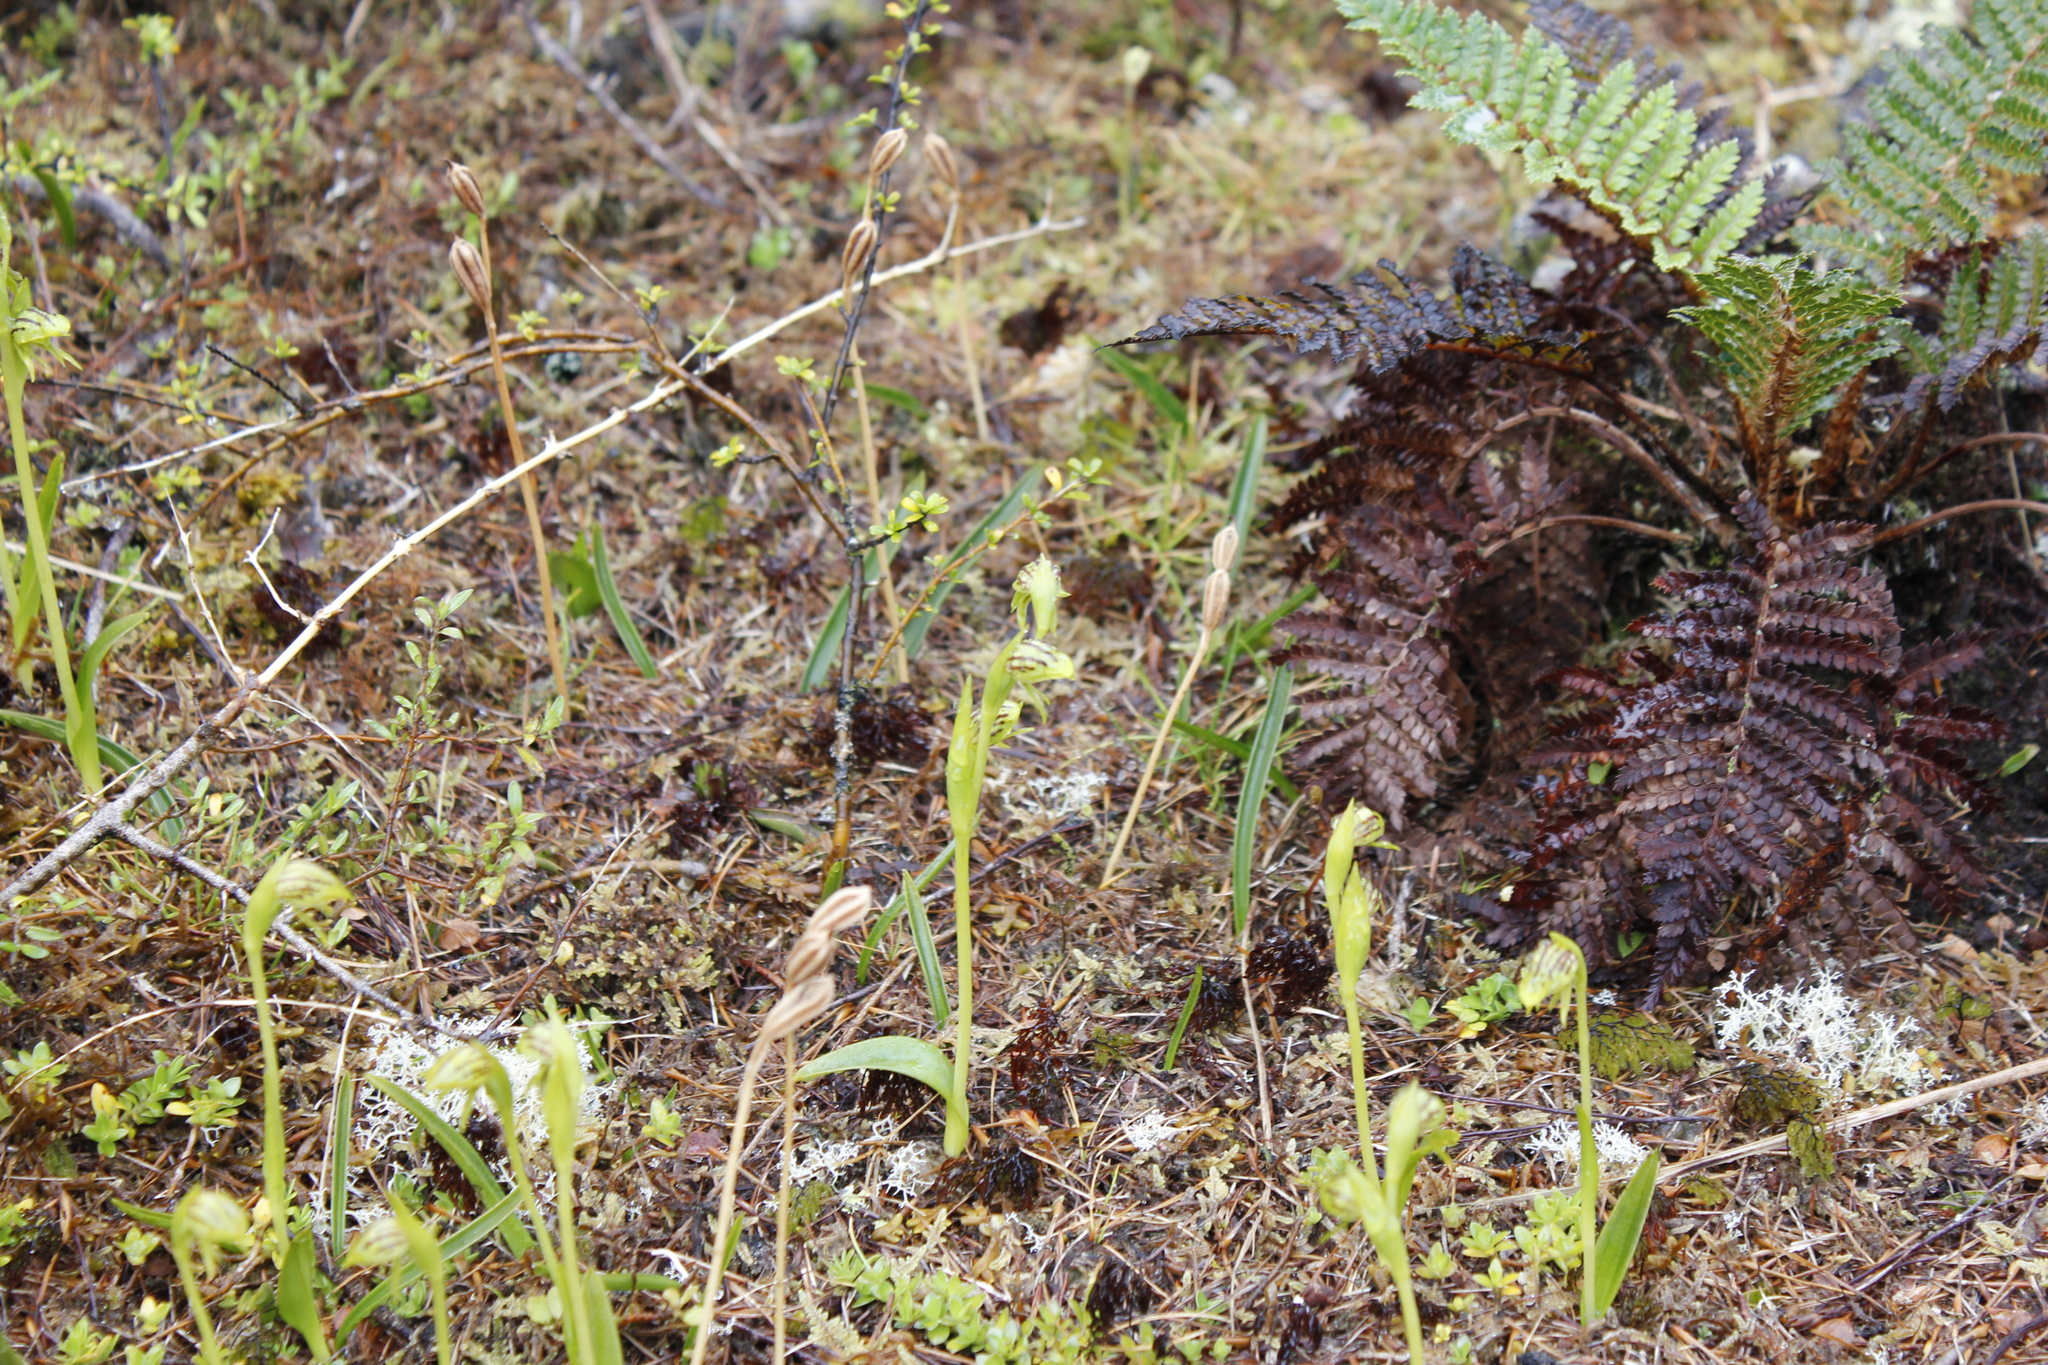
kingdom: Plantae
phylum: Tracheophyta
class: Liliopsida
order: Asparagales
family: Orchidaceae
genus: Waireia
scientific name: Waireia stenopetala
